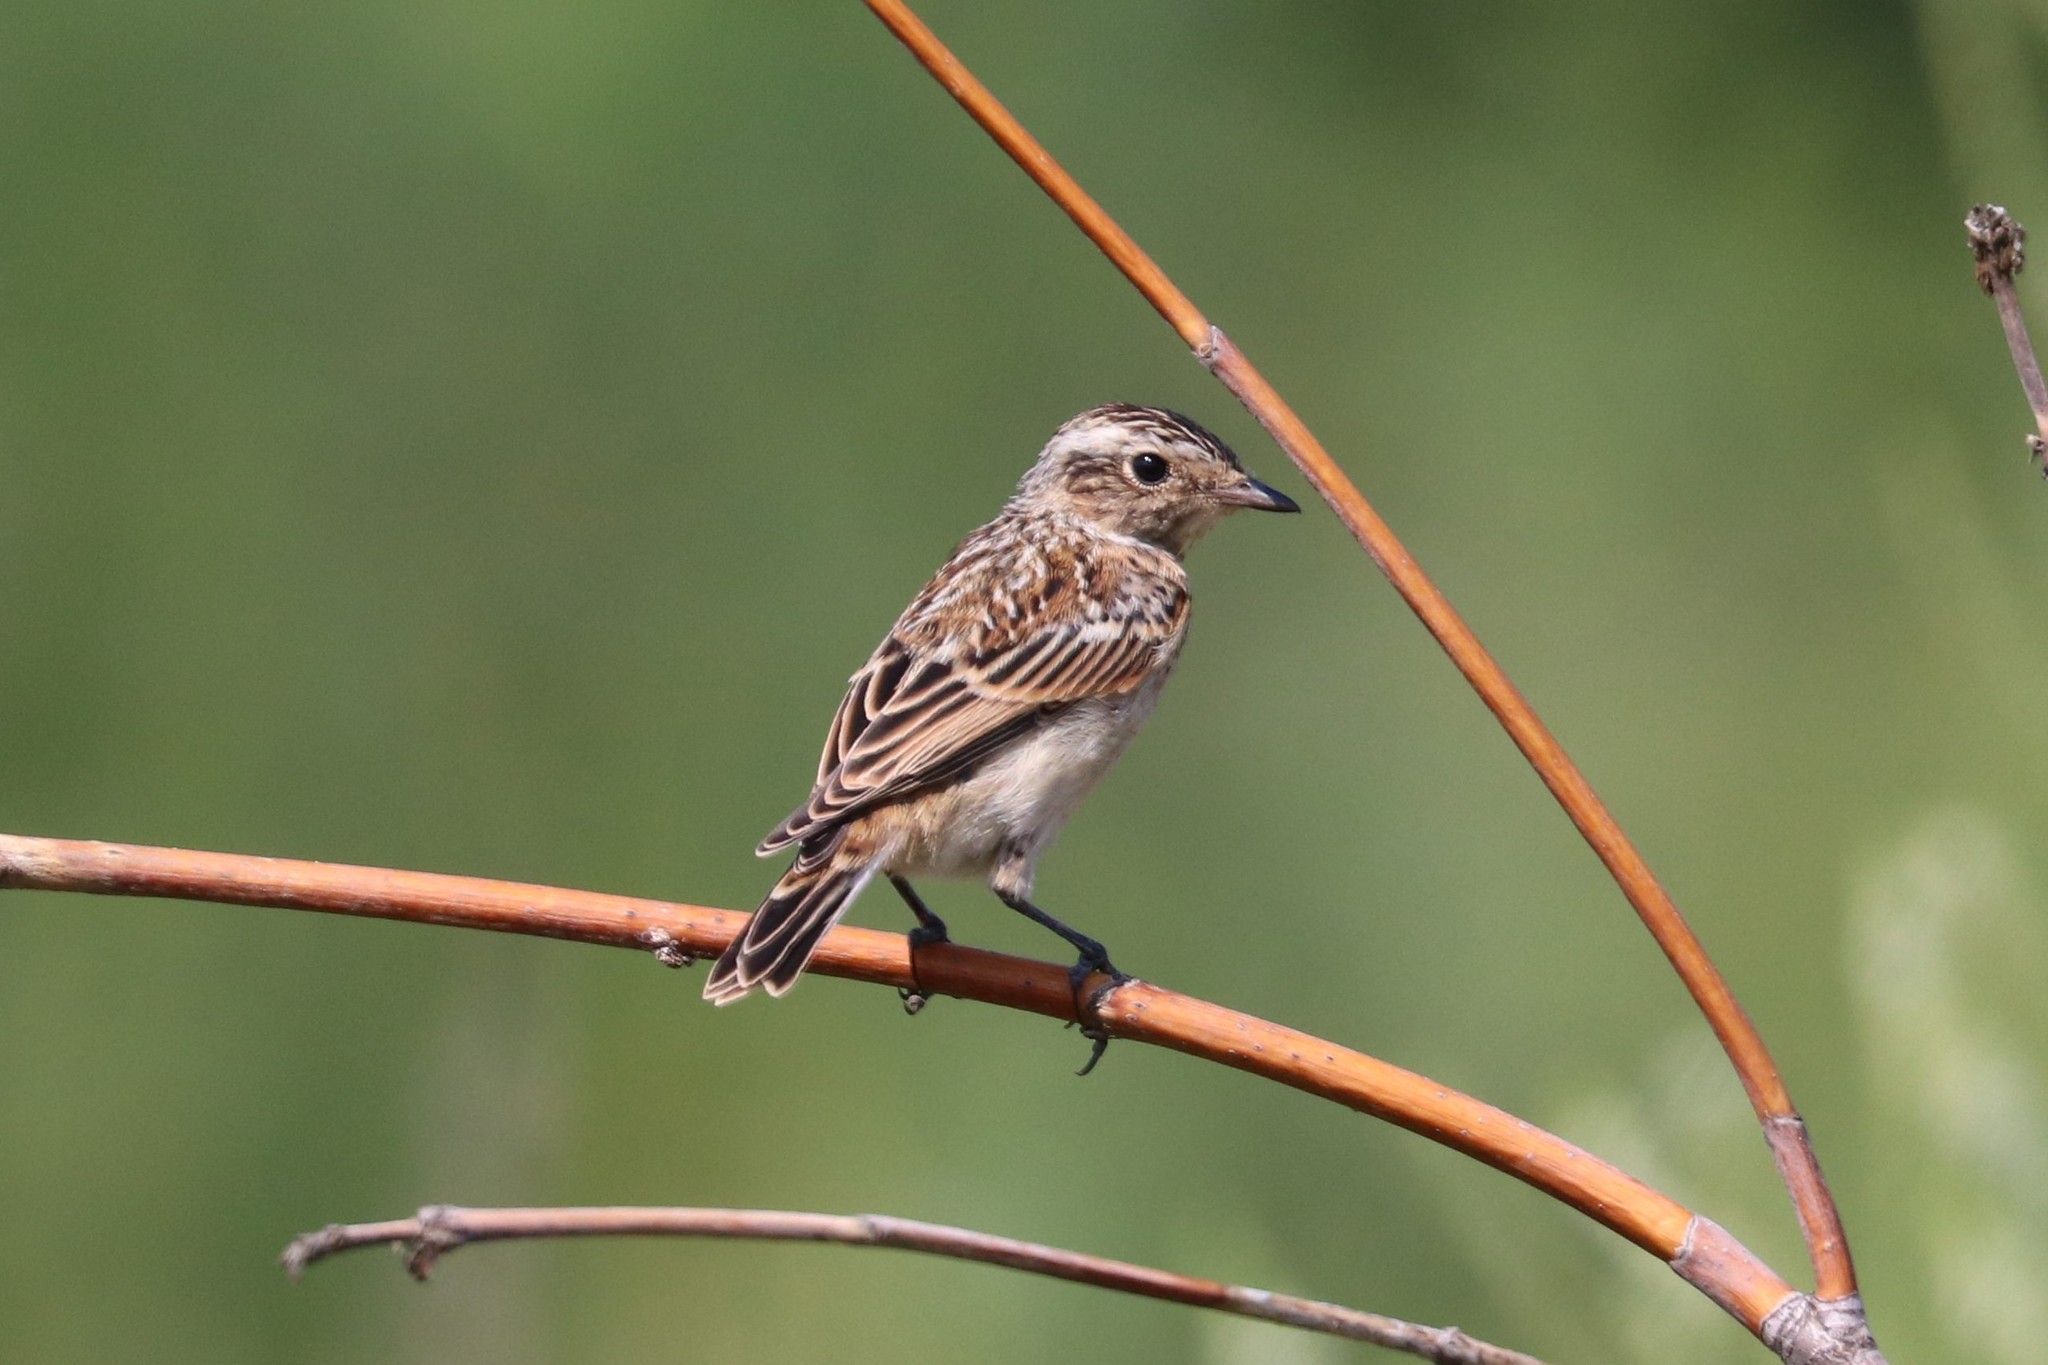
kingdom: Animalia
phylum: Chordata
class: Aves
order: Passeriformes
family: Muscicapidae
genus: Saxicola
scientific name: Saxicola rubetra
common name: Whinchat
